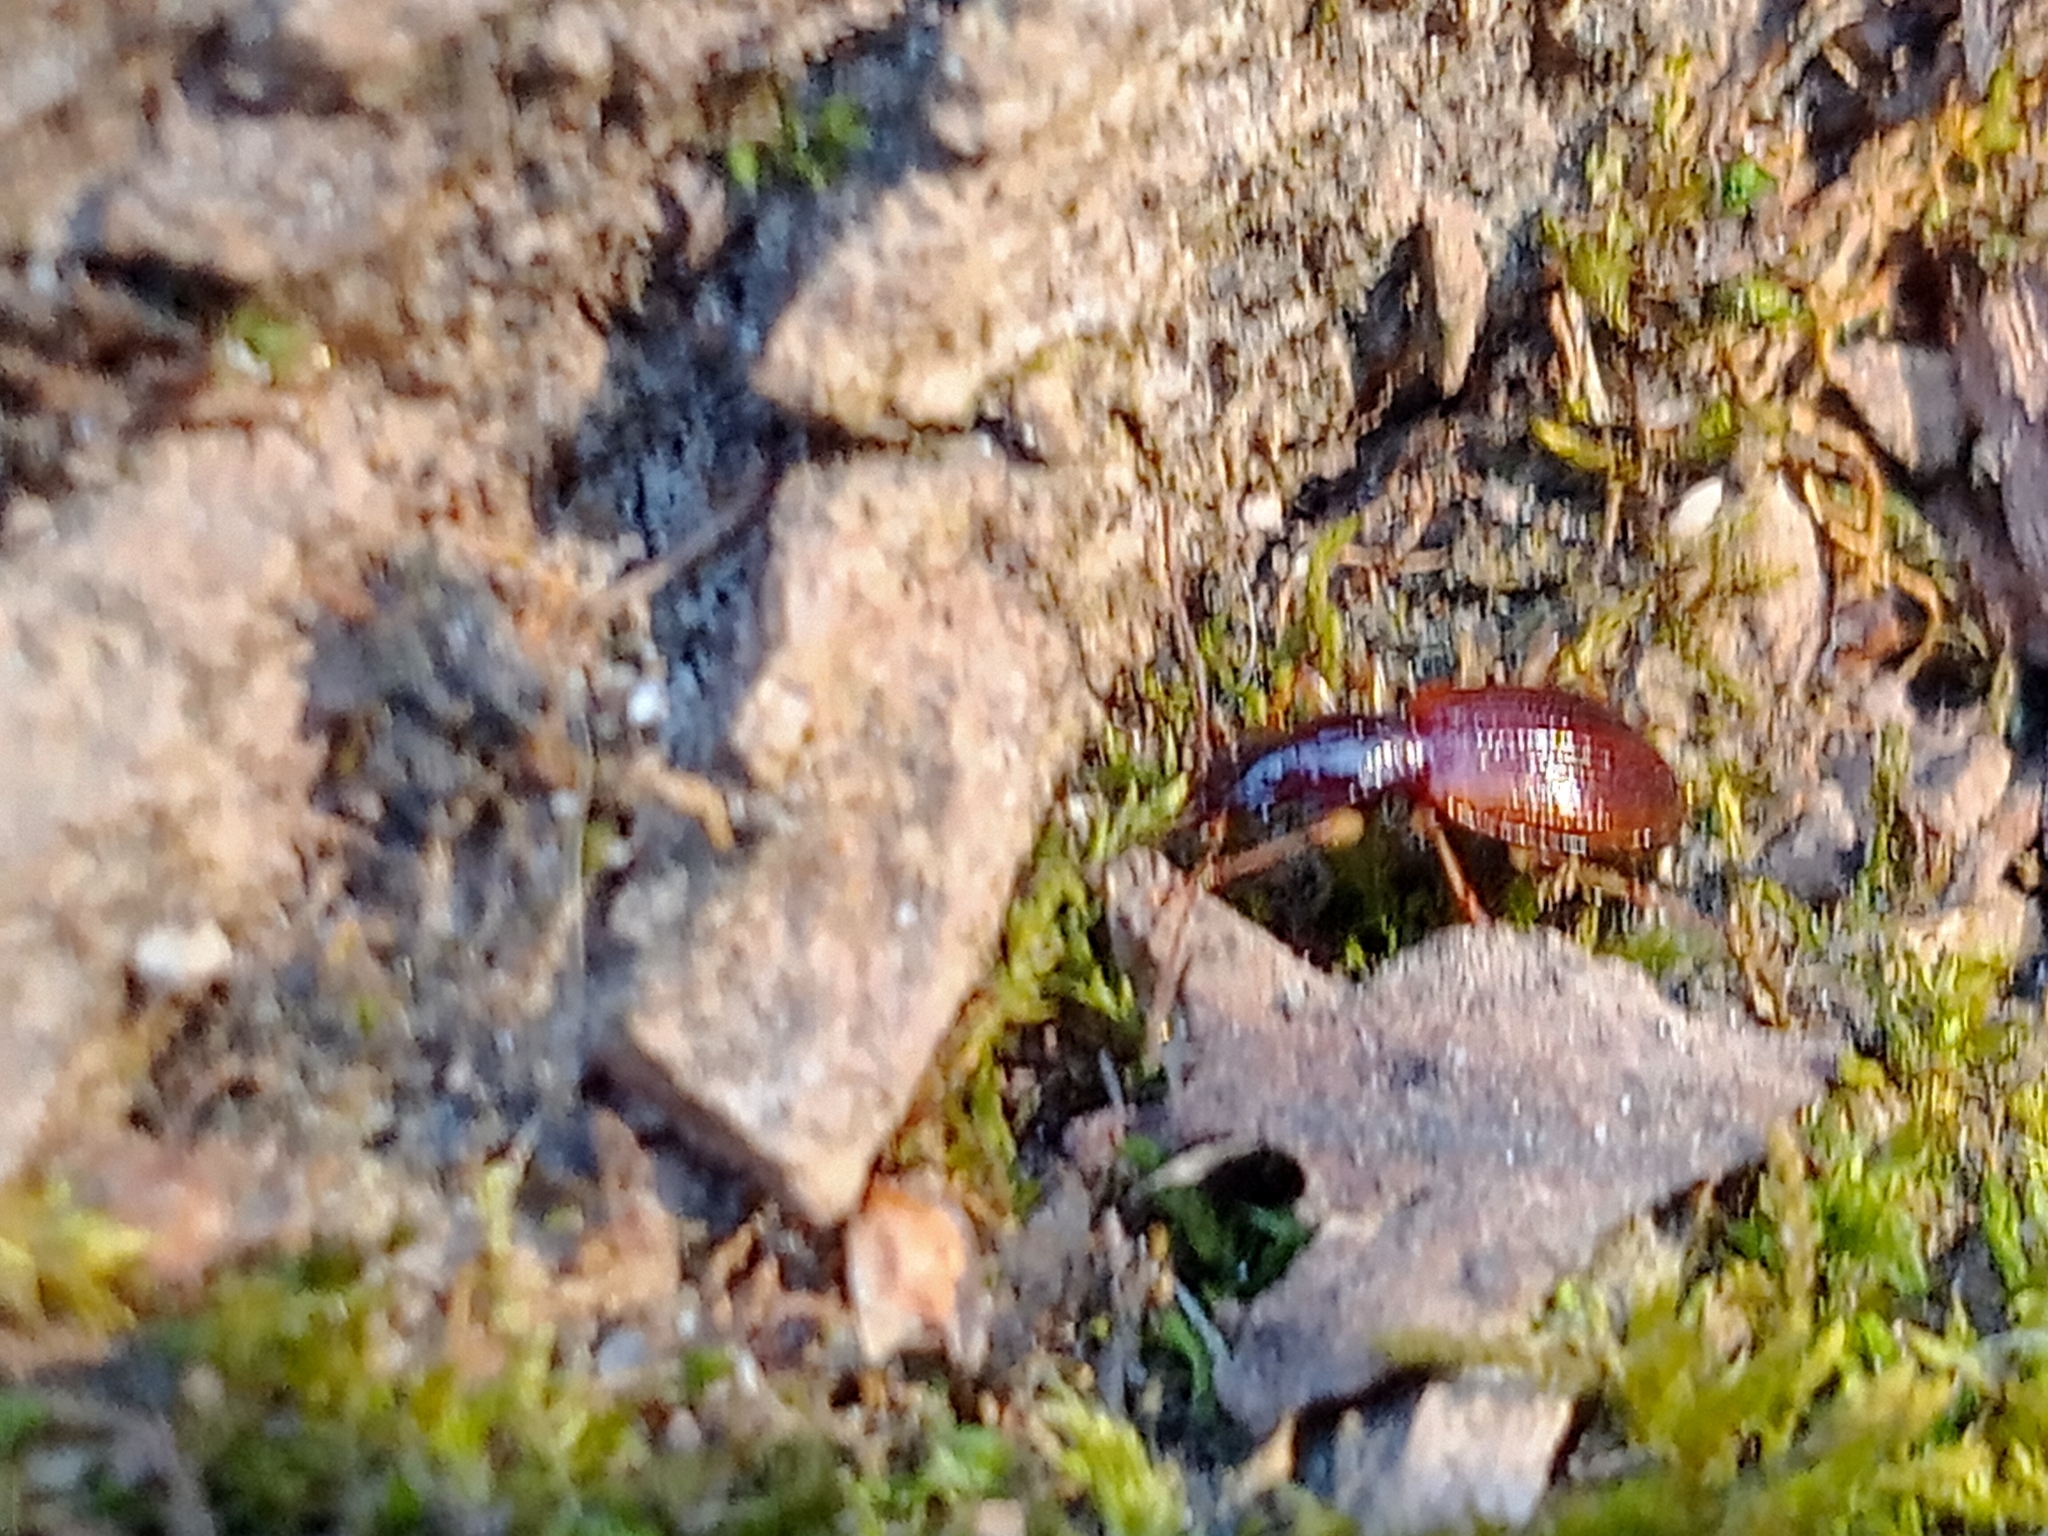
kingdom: Animalia
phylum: Arthropoda
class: Insecta
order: Coleoptera
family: Carabidae
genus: Oxypselaphus
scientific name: Oxypselaphus obscurus
